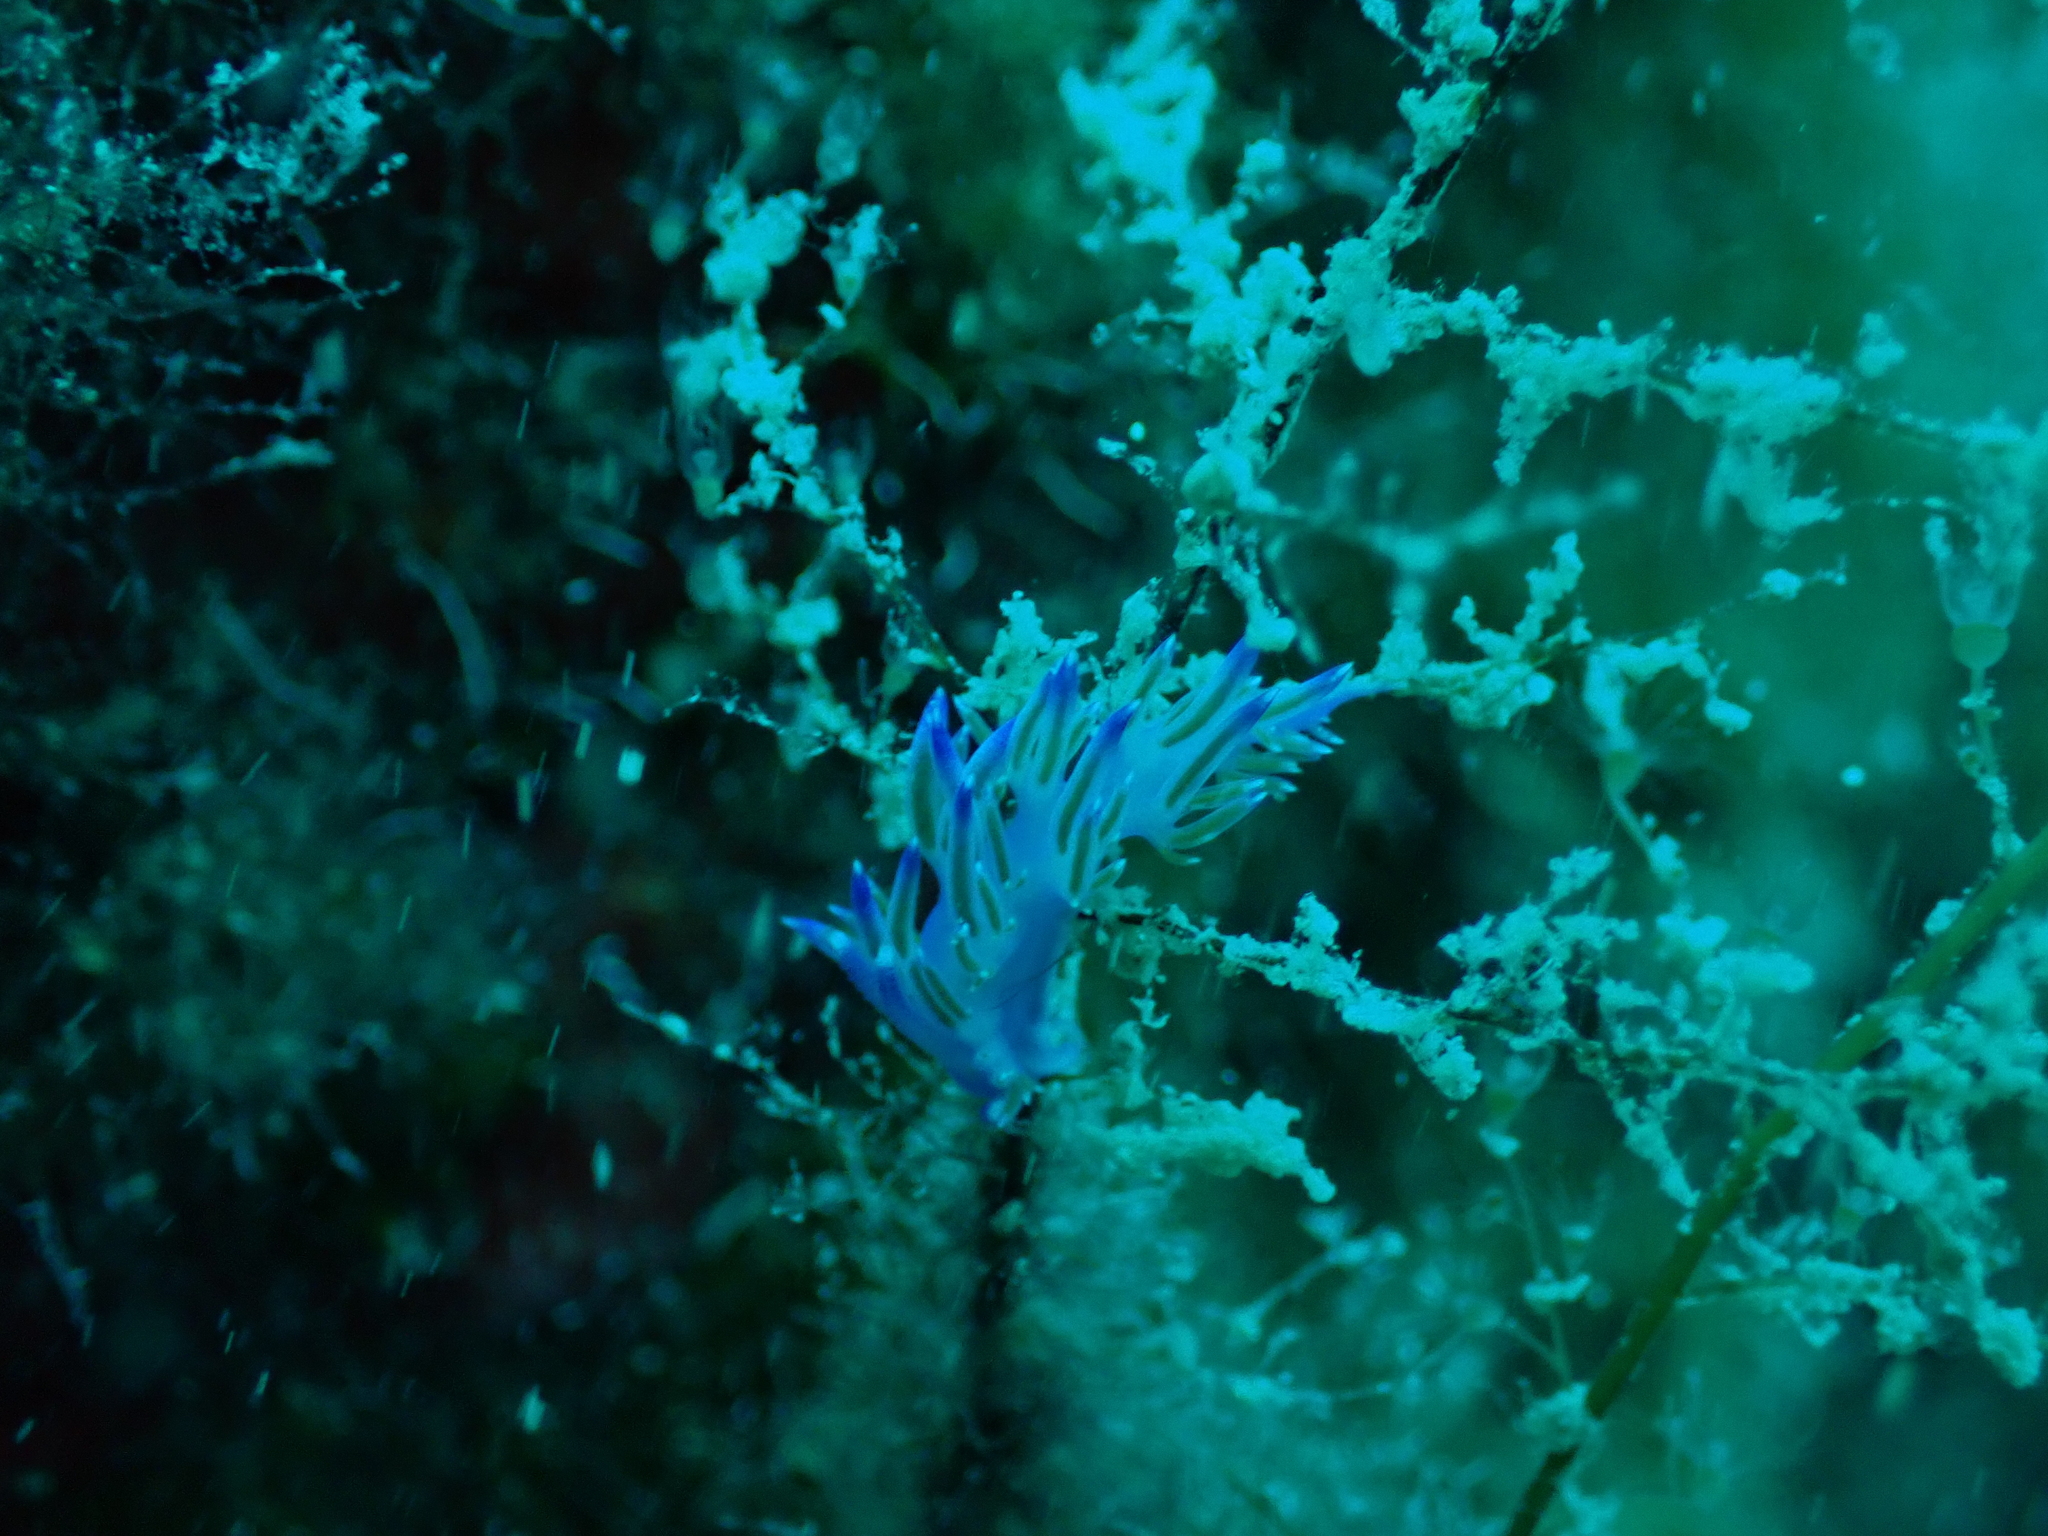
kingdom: Animalia
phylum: Mollusca
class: Gastropoda
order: Nudibranchia
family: Flabellinidae
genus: Flabellina
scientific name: Flabellina affinis
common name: Mediterranean violet aeolid
